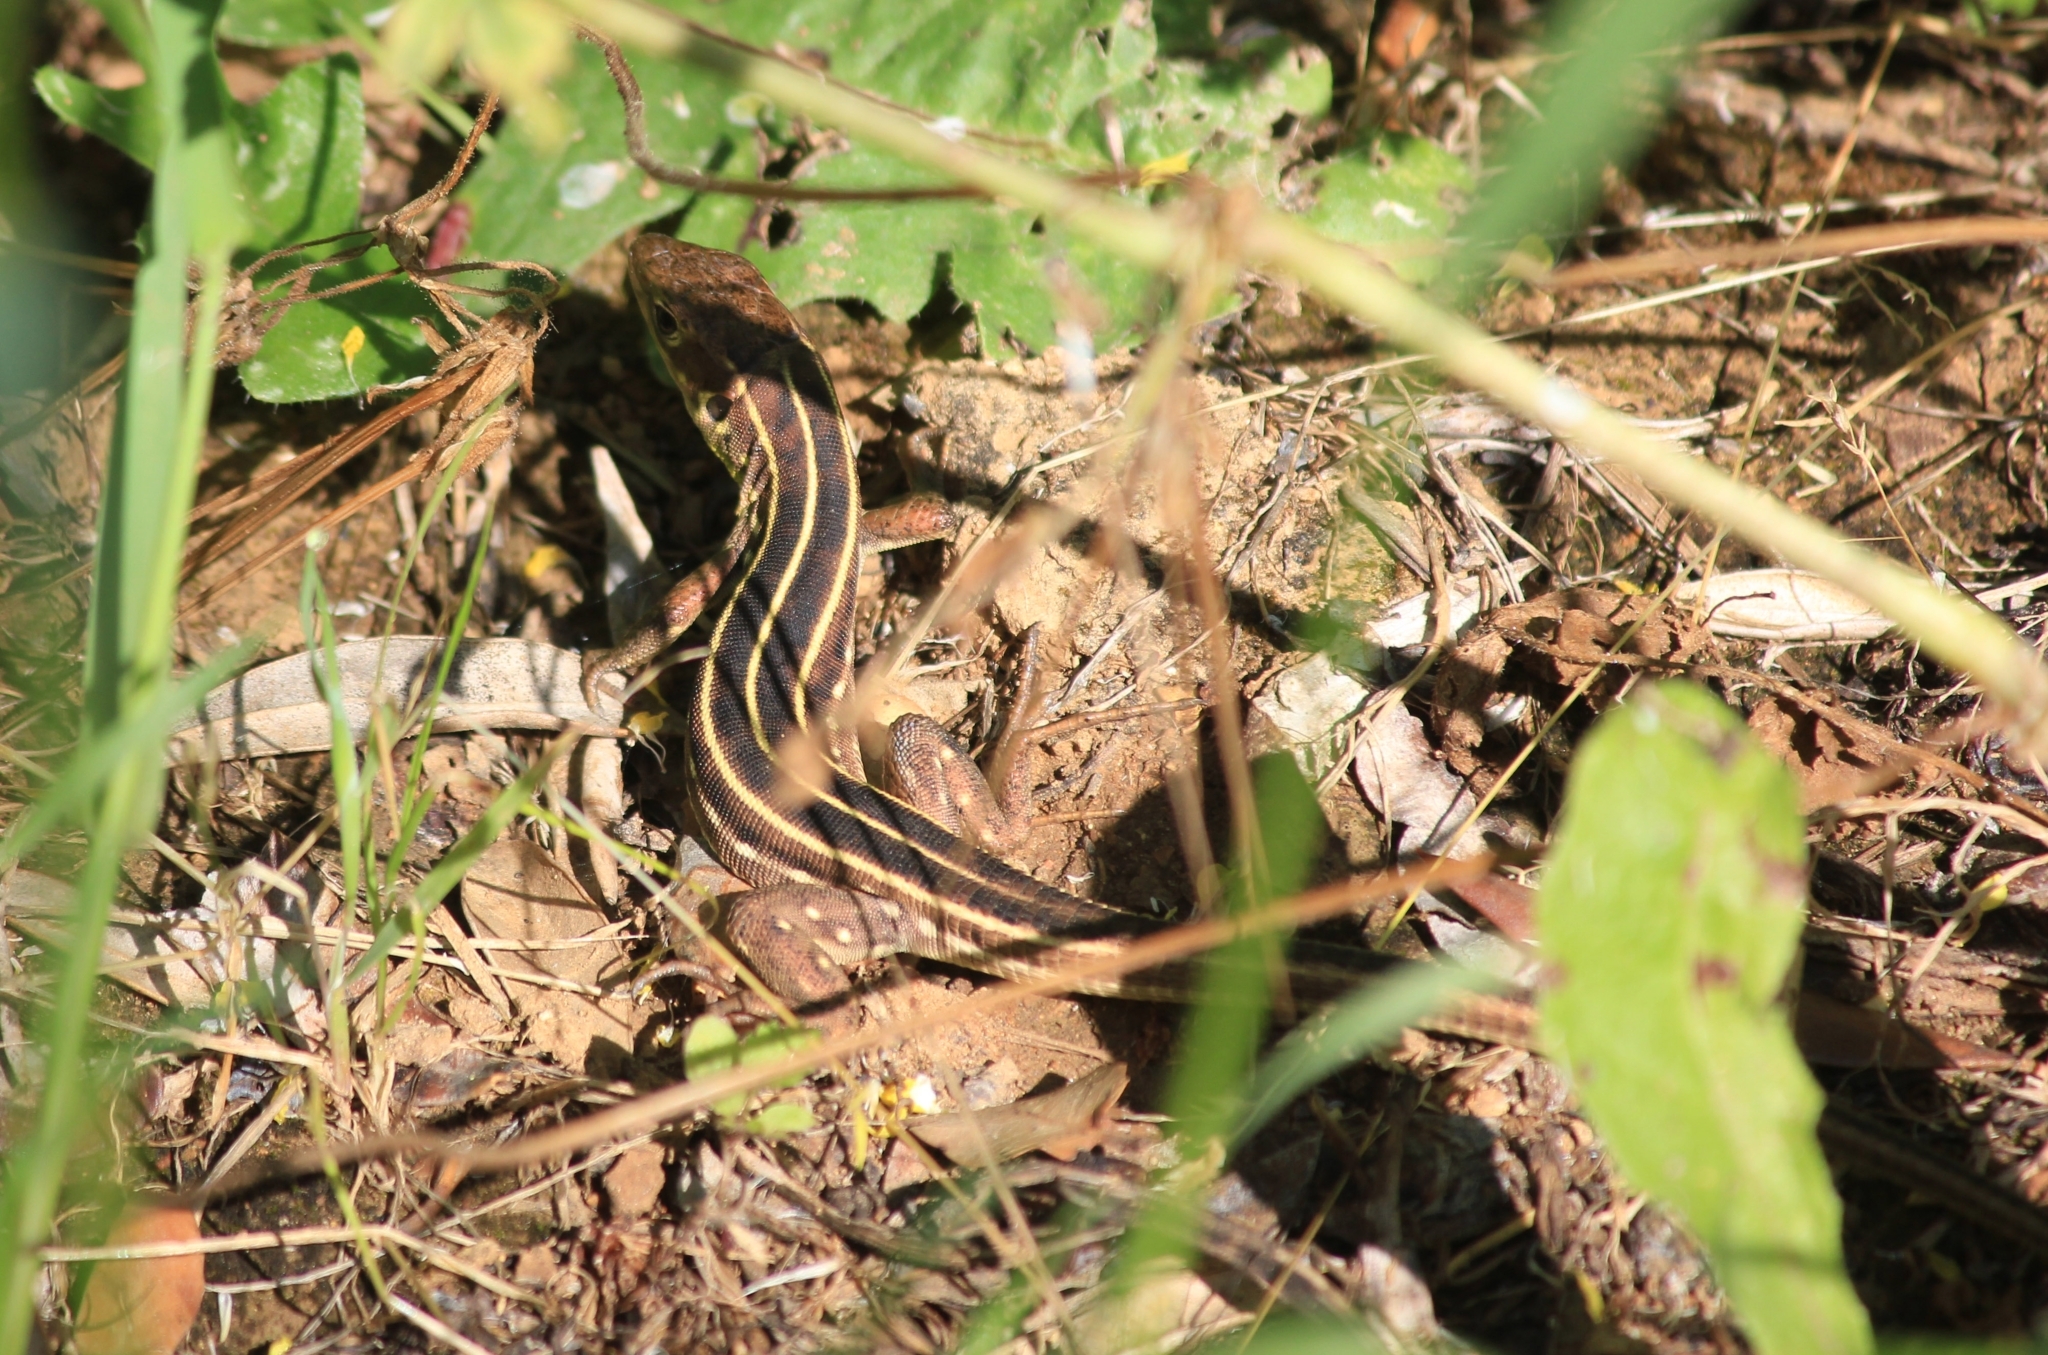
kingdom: Animalia
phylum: Chordata
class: Squamata
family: Lacertidae
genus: Lacerta
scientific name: Lacerta trilineata
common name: Balkan green lizard
